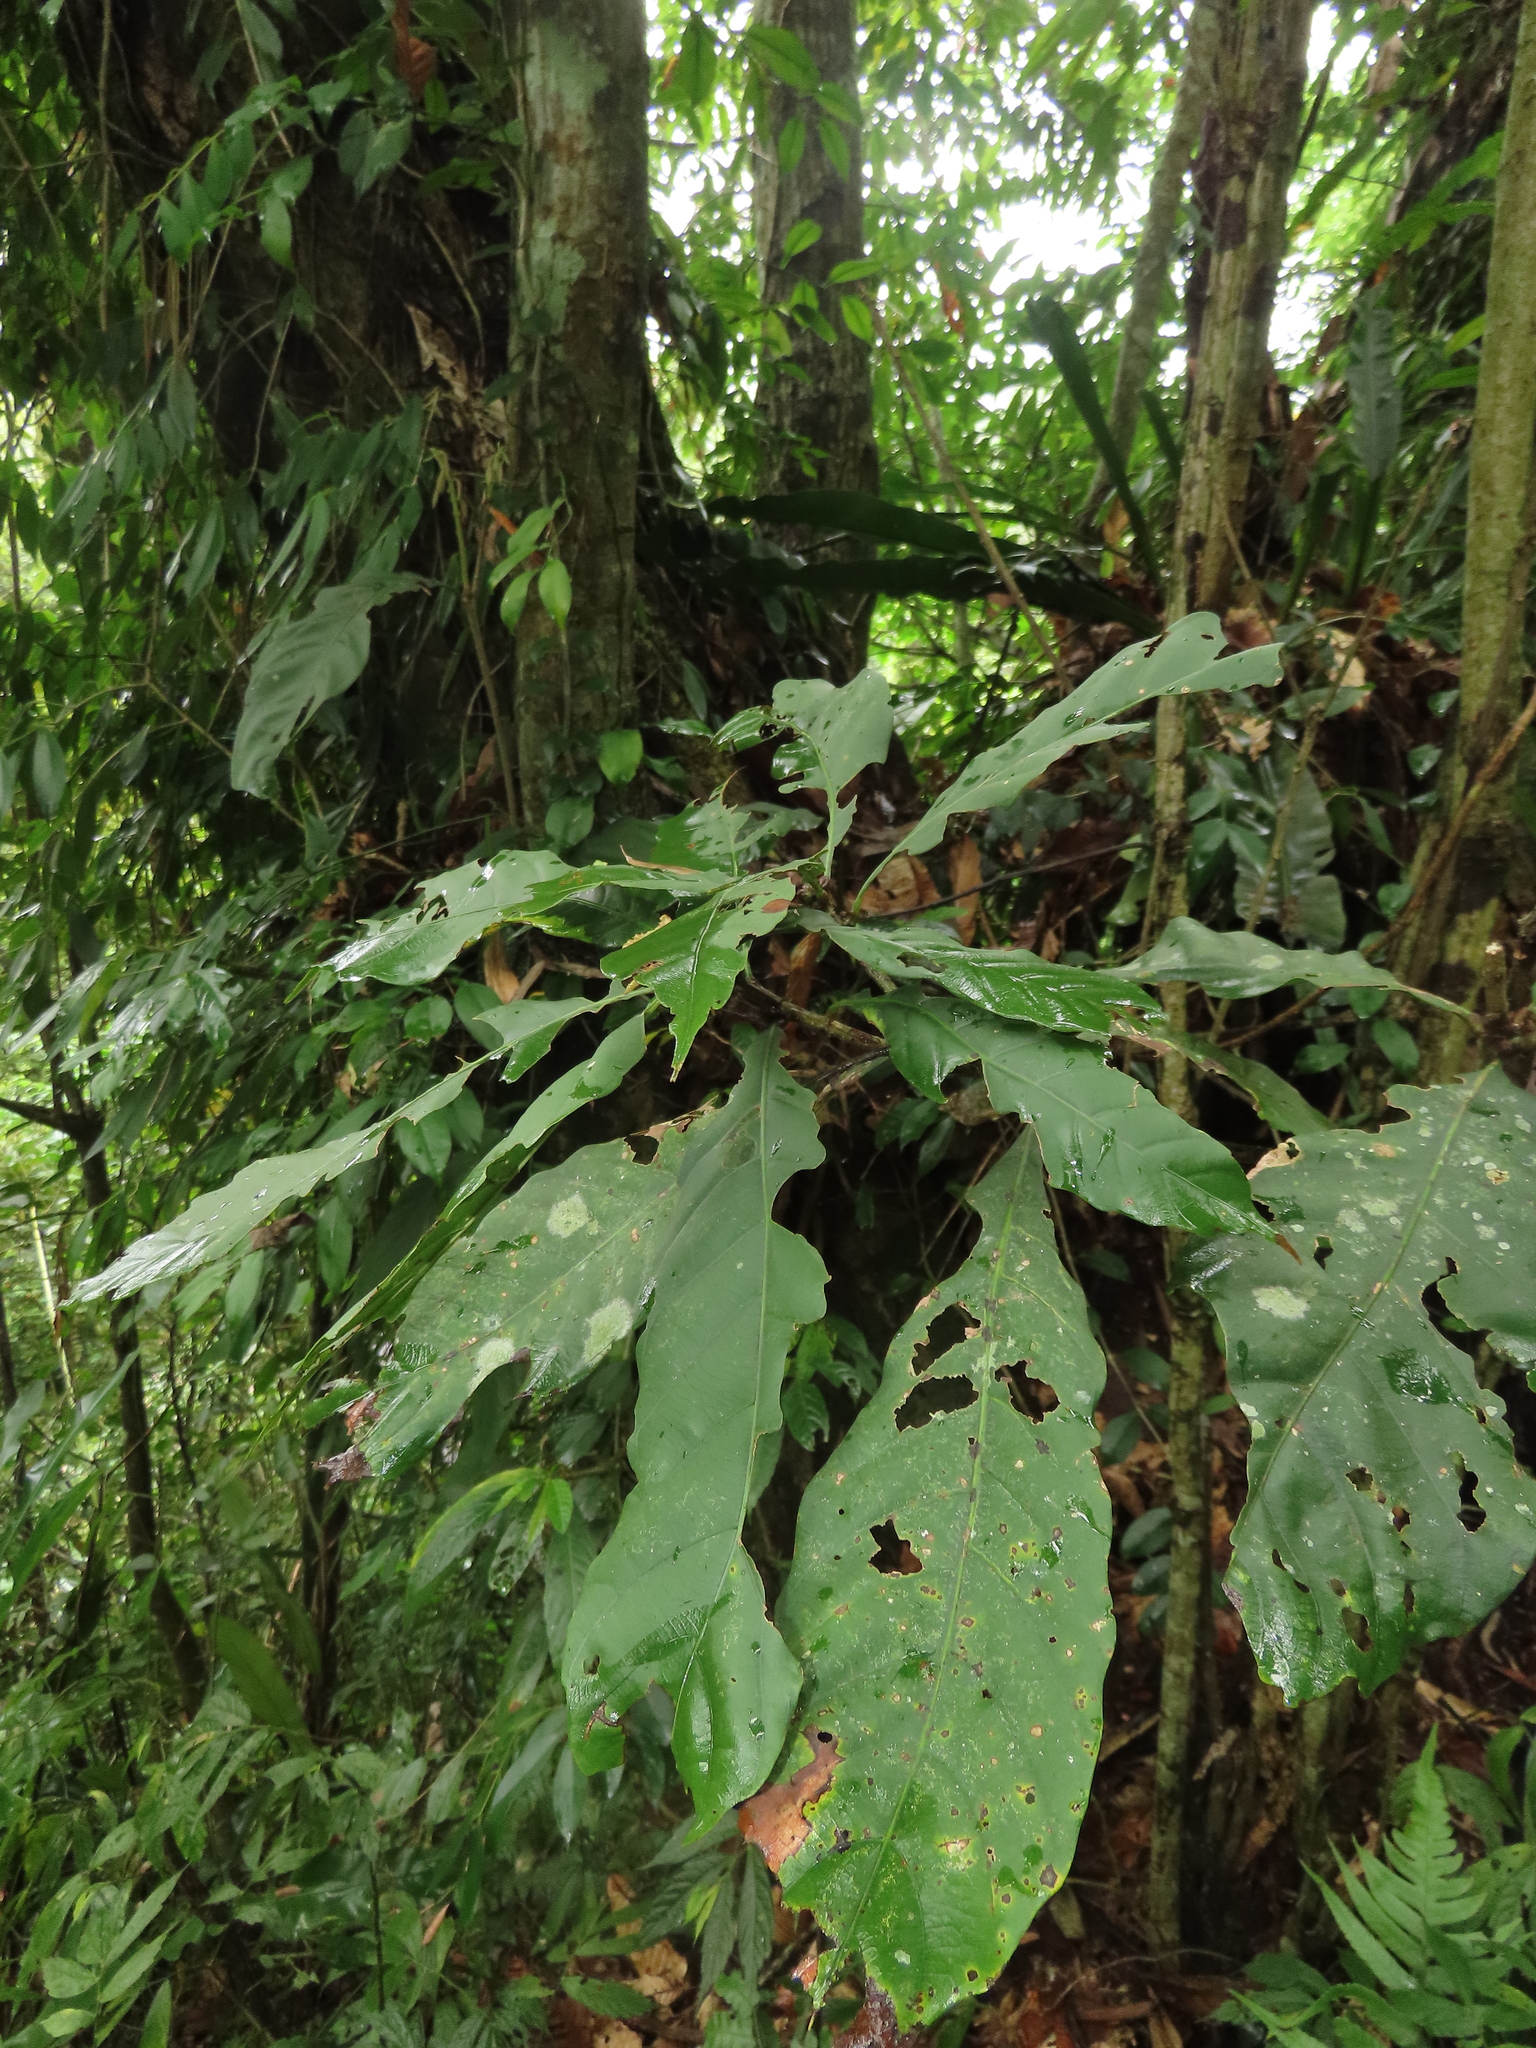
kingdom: Plantae
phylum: Tracheophyta
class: Magnoliopsida
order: Fagales
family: Fagaceae
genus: Lithocarpus
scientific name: Lithocarpus kawakamii
